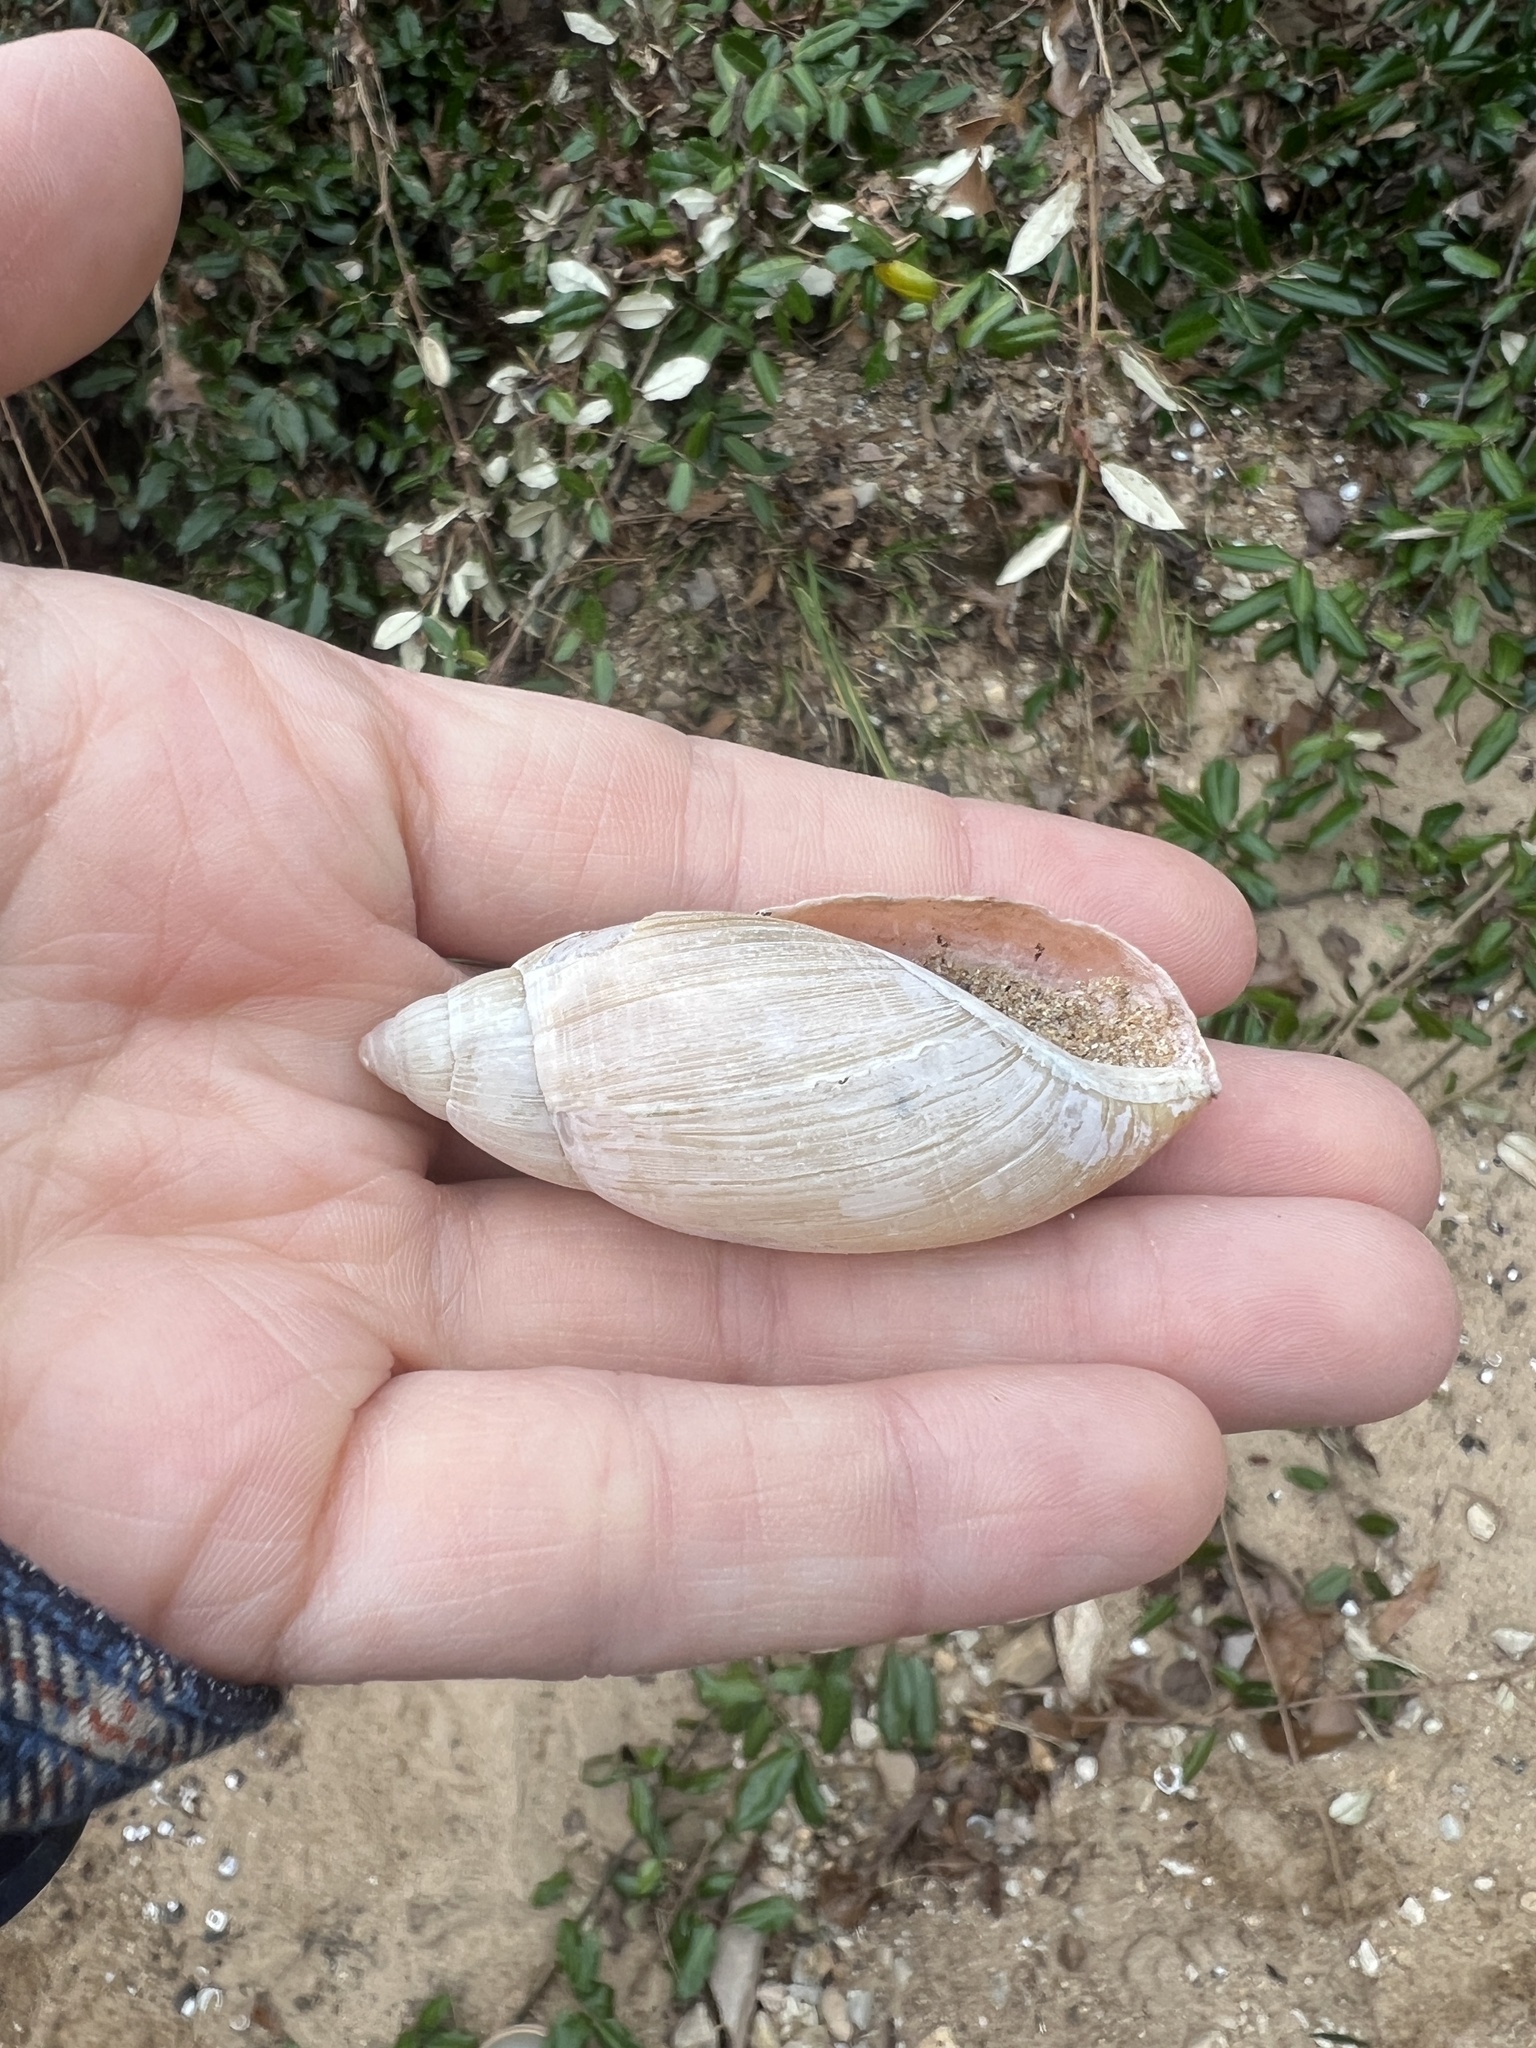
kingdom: Animalia
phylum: Mollusca
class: Gastropoda
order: Stylommatophora
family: Spiraxidae
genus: Euglandina
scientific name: Euglandina rosea
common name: Rosy wolfsnail
